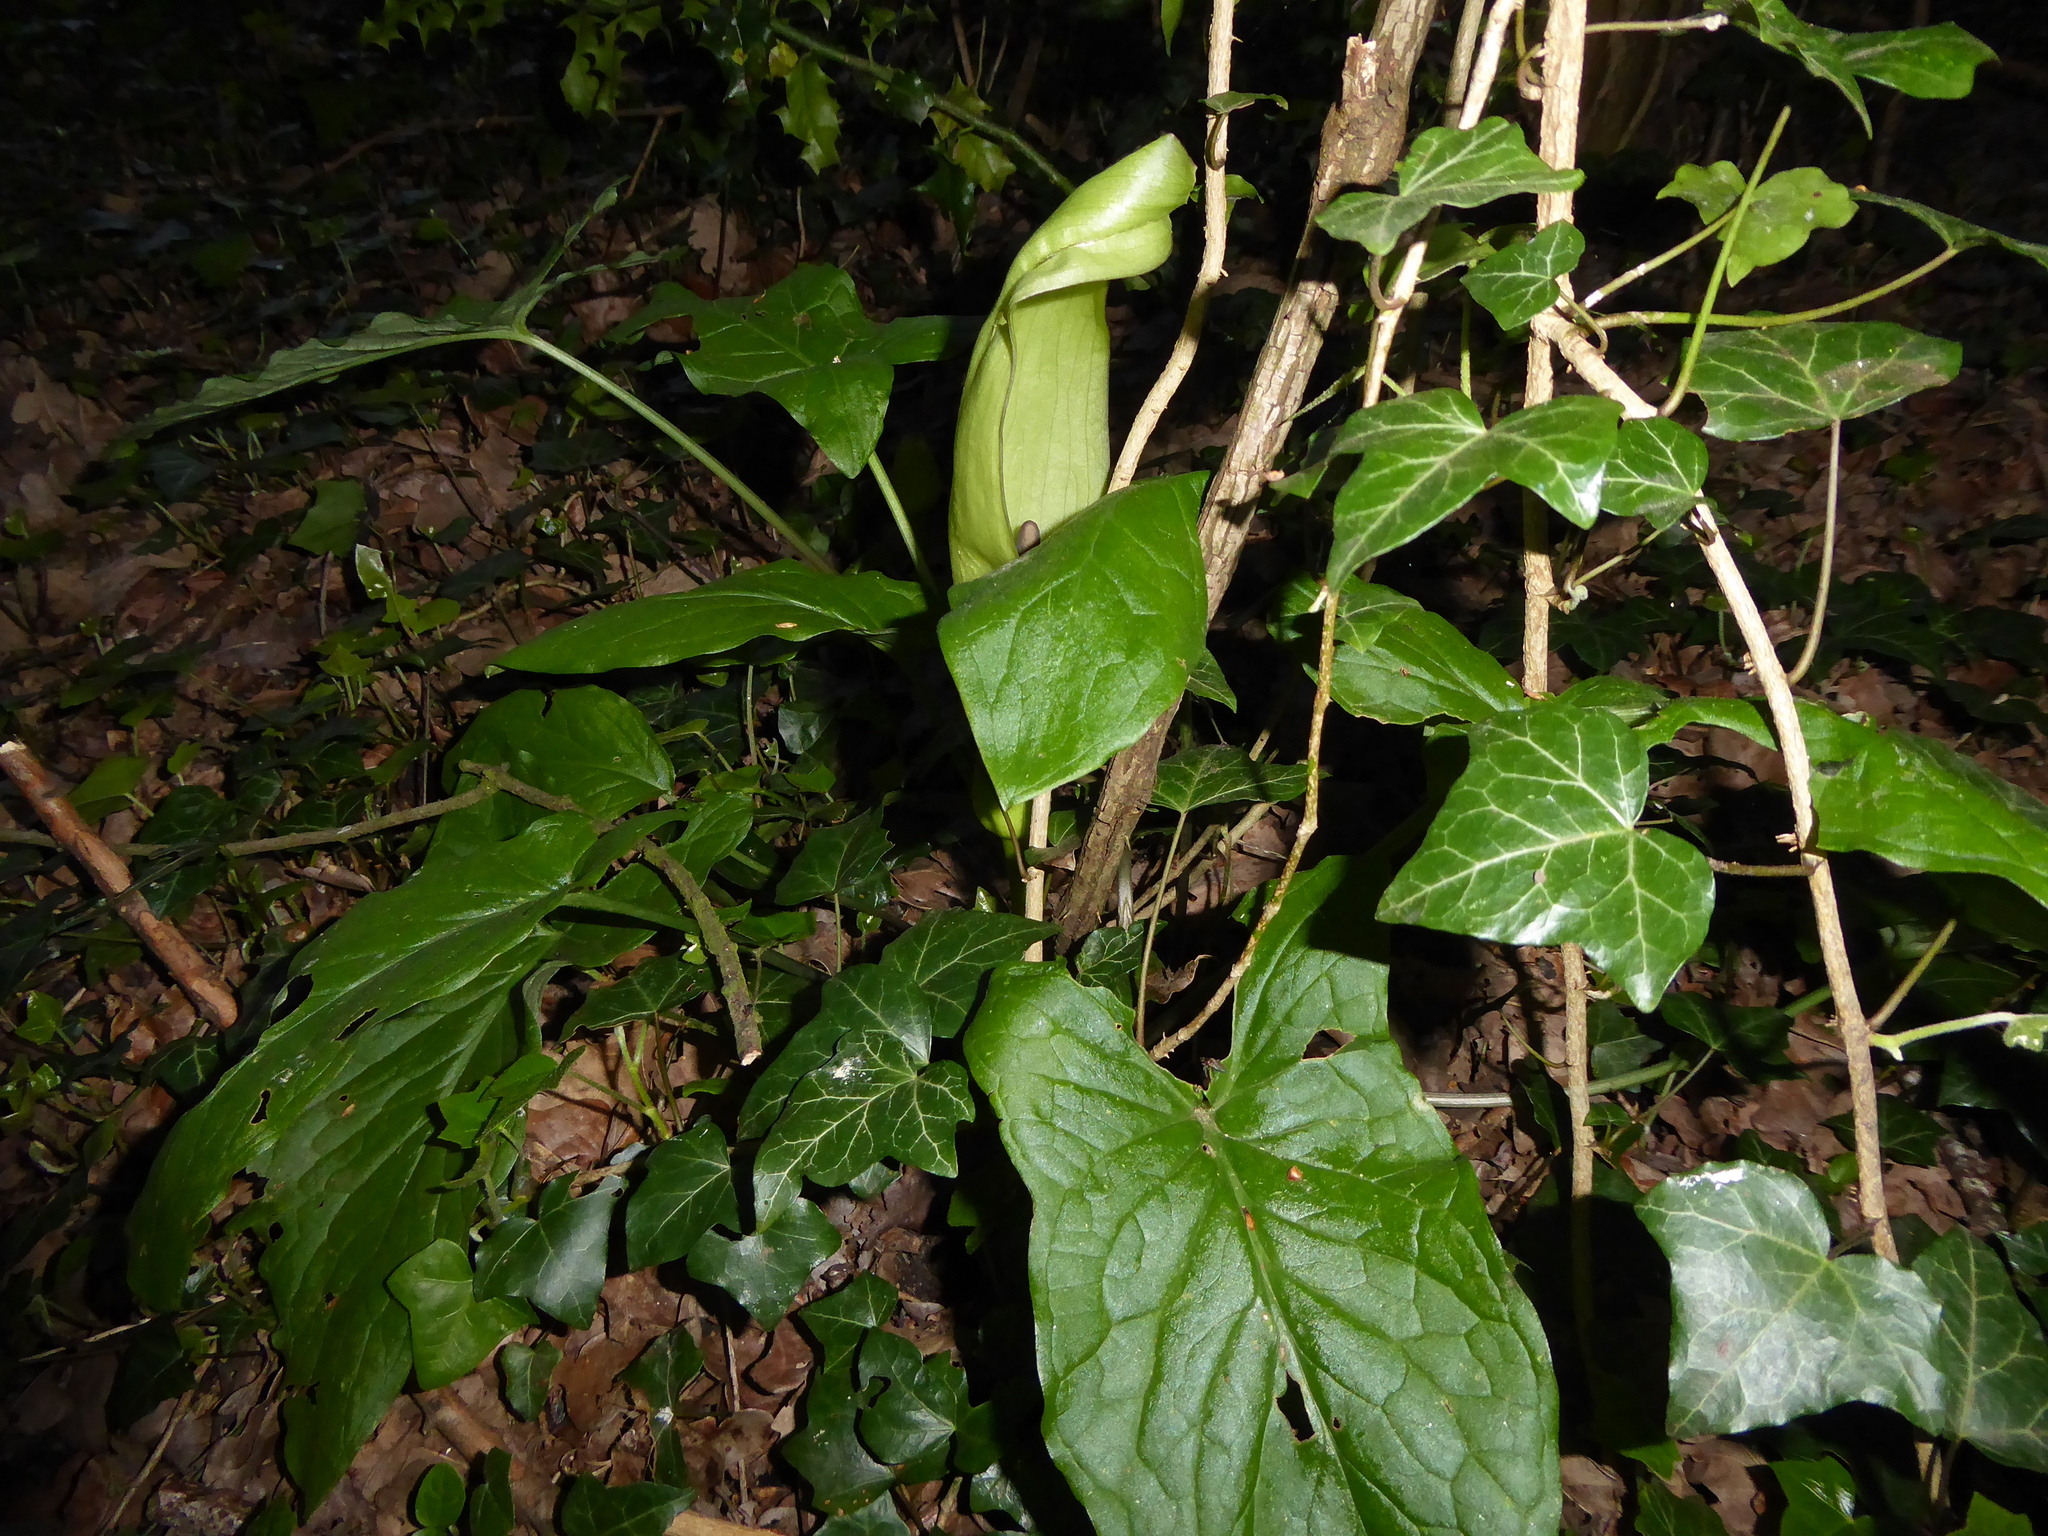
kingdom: Plantae
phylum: Tracheophyta
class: Liliopsida
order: Alismatales
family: Araceae
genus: Arum
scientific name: Arum maculatum
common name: Lords-and-ladies
